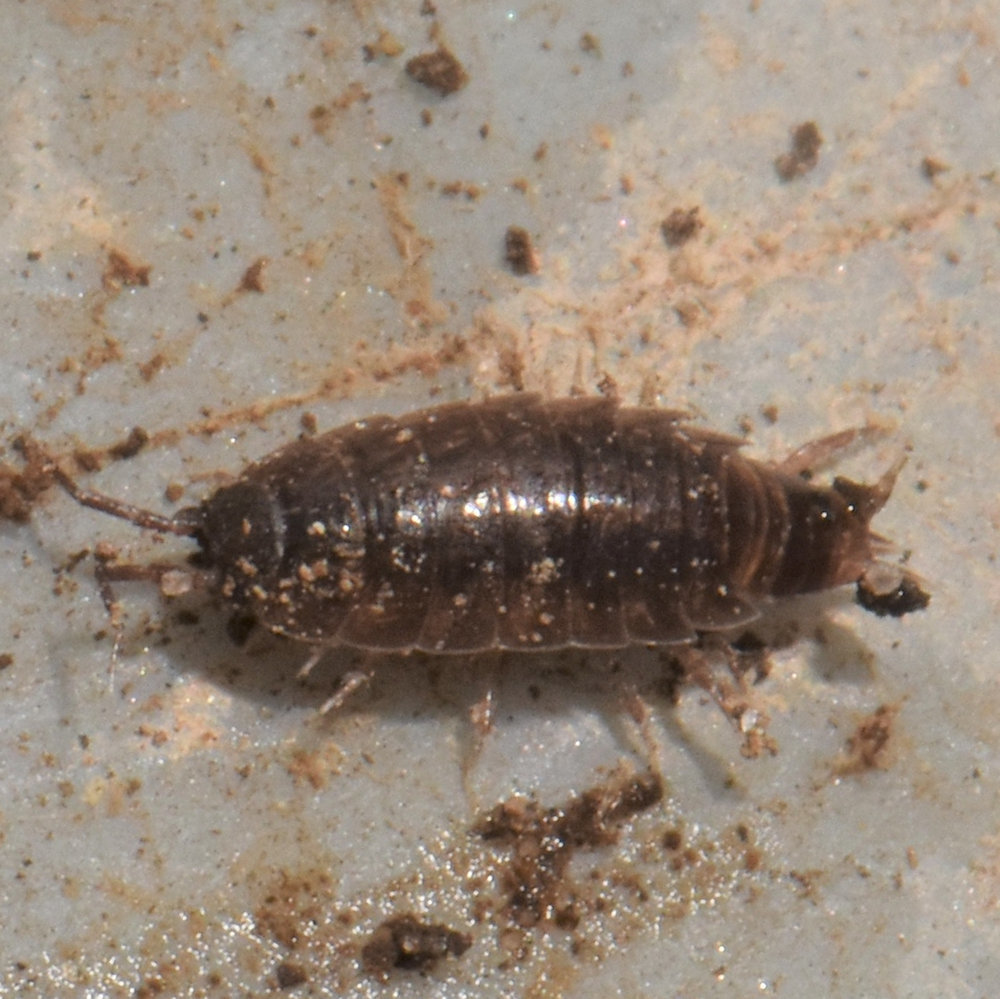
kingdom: Animalia
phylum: Arthropoda
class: Malacostraca
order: Isopoda
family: Trichoniscidae
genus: Hyloniscus
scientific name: Hyloniscus riparius
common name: Isopod
